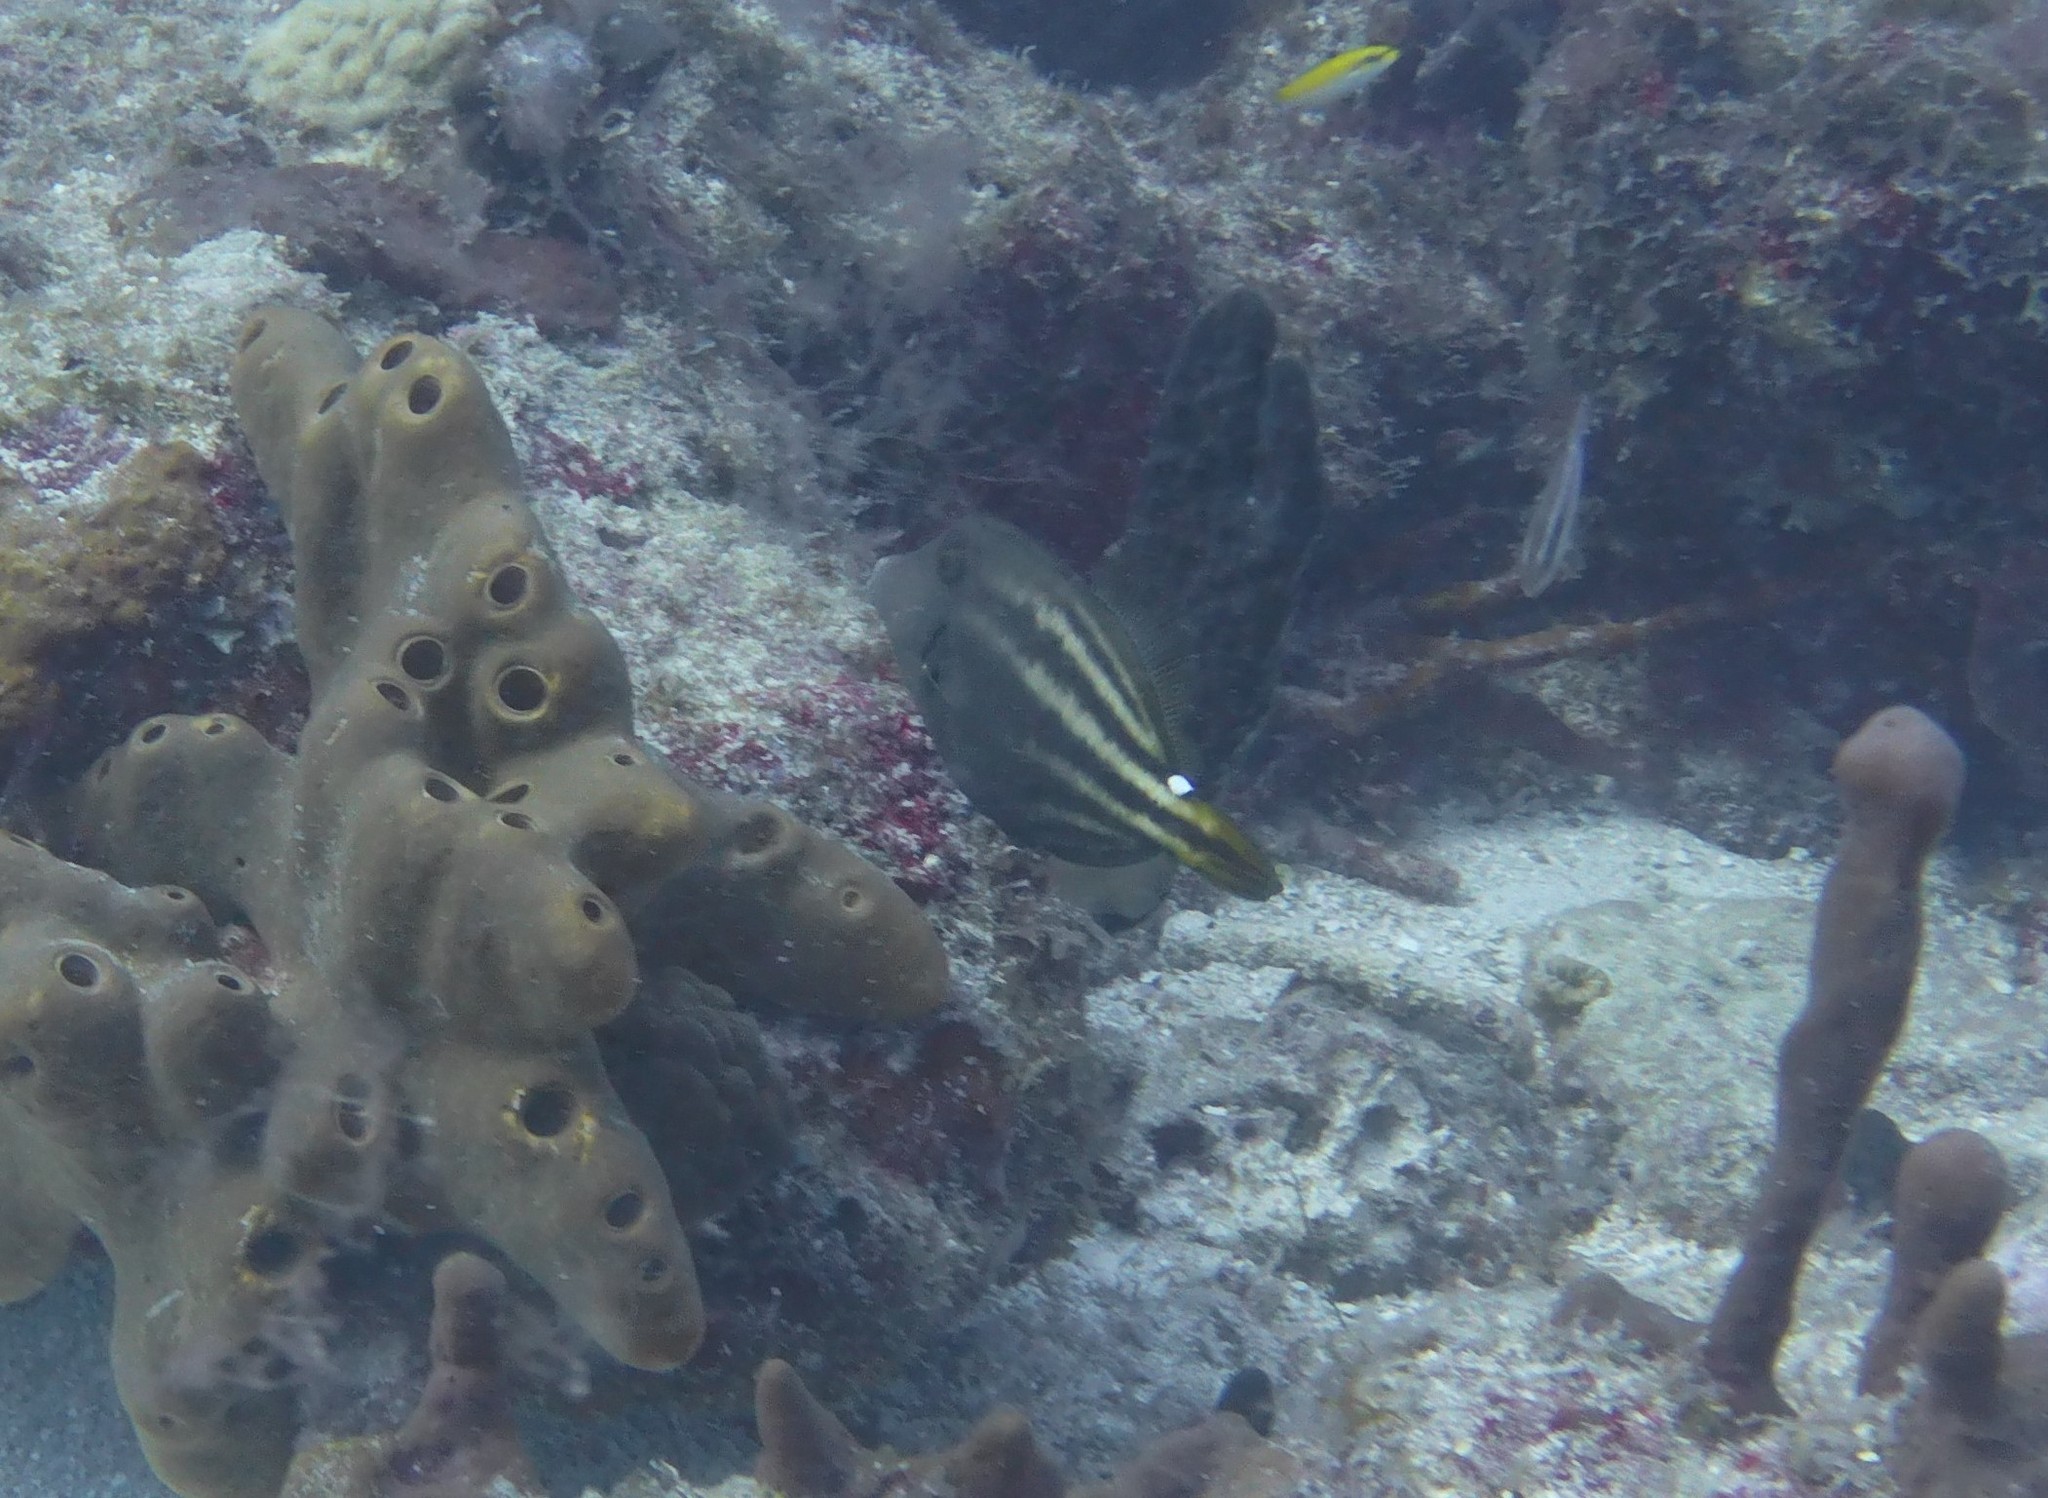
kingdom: Animalia
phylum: Chordata
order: Tetraodontiformes
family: Monacanthidae
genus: Cantherhines
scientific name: Cantherhines pullus
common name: Orangespotted filefish
